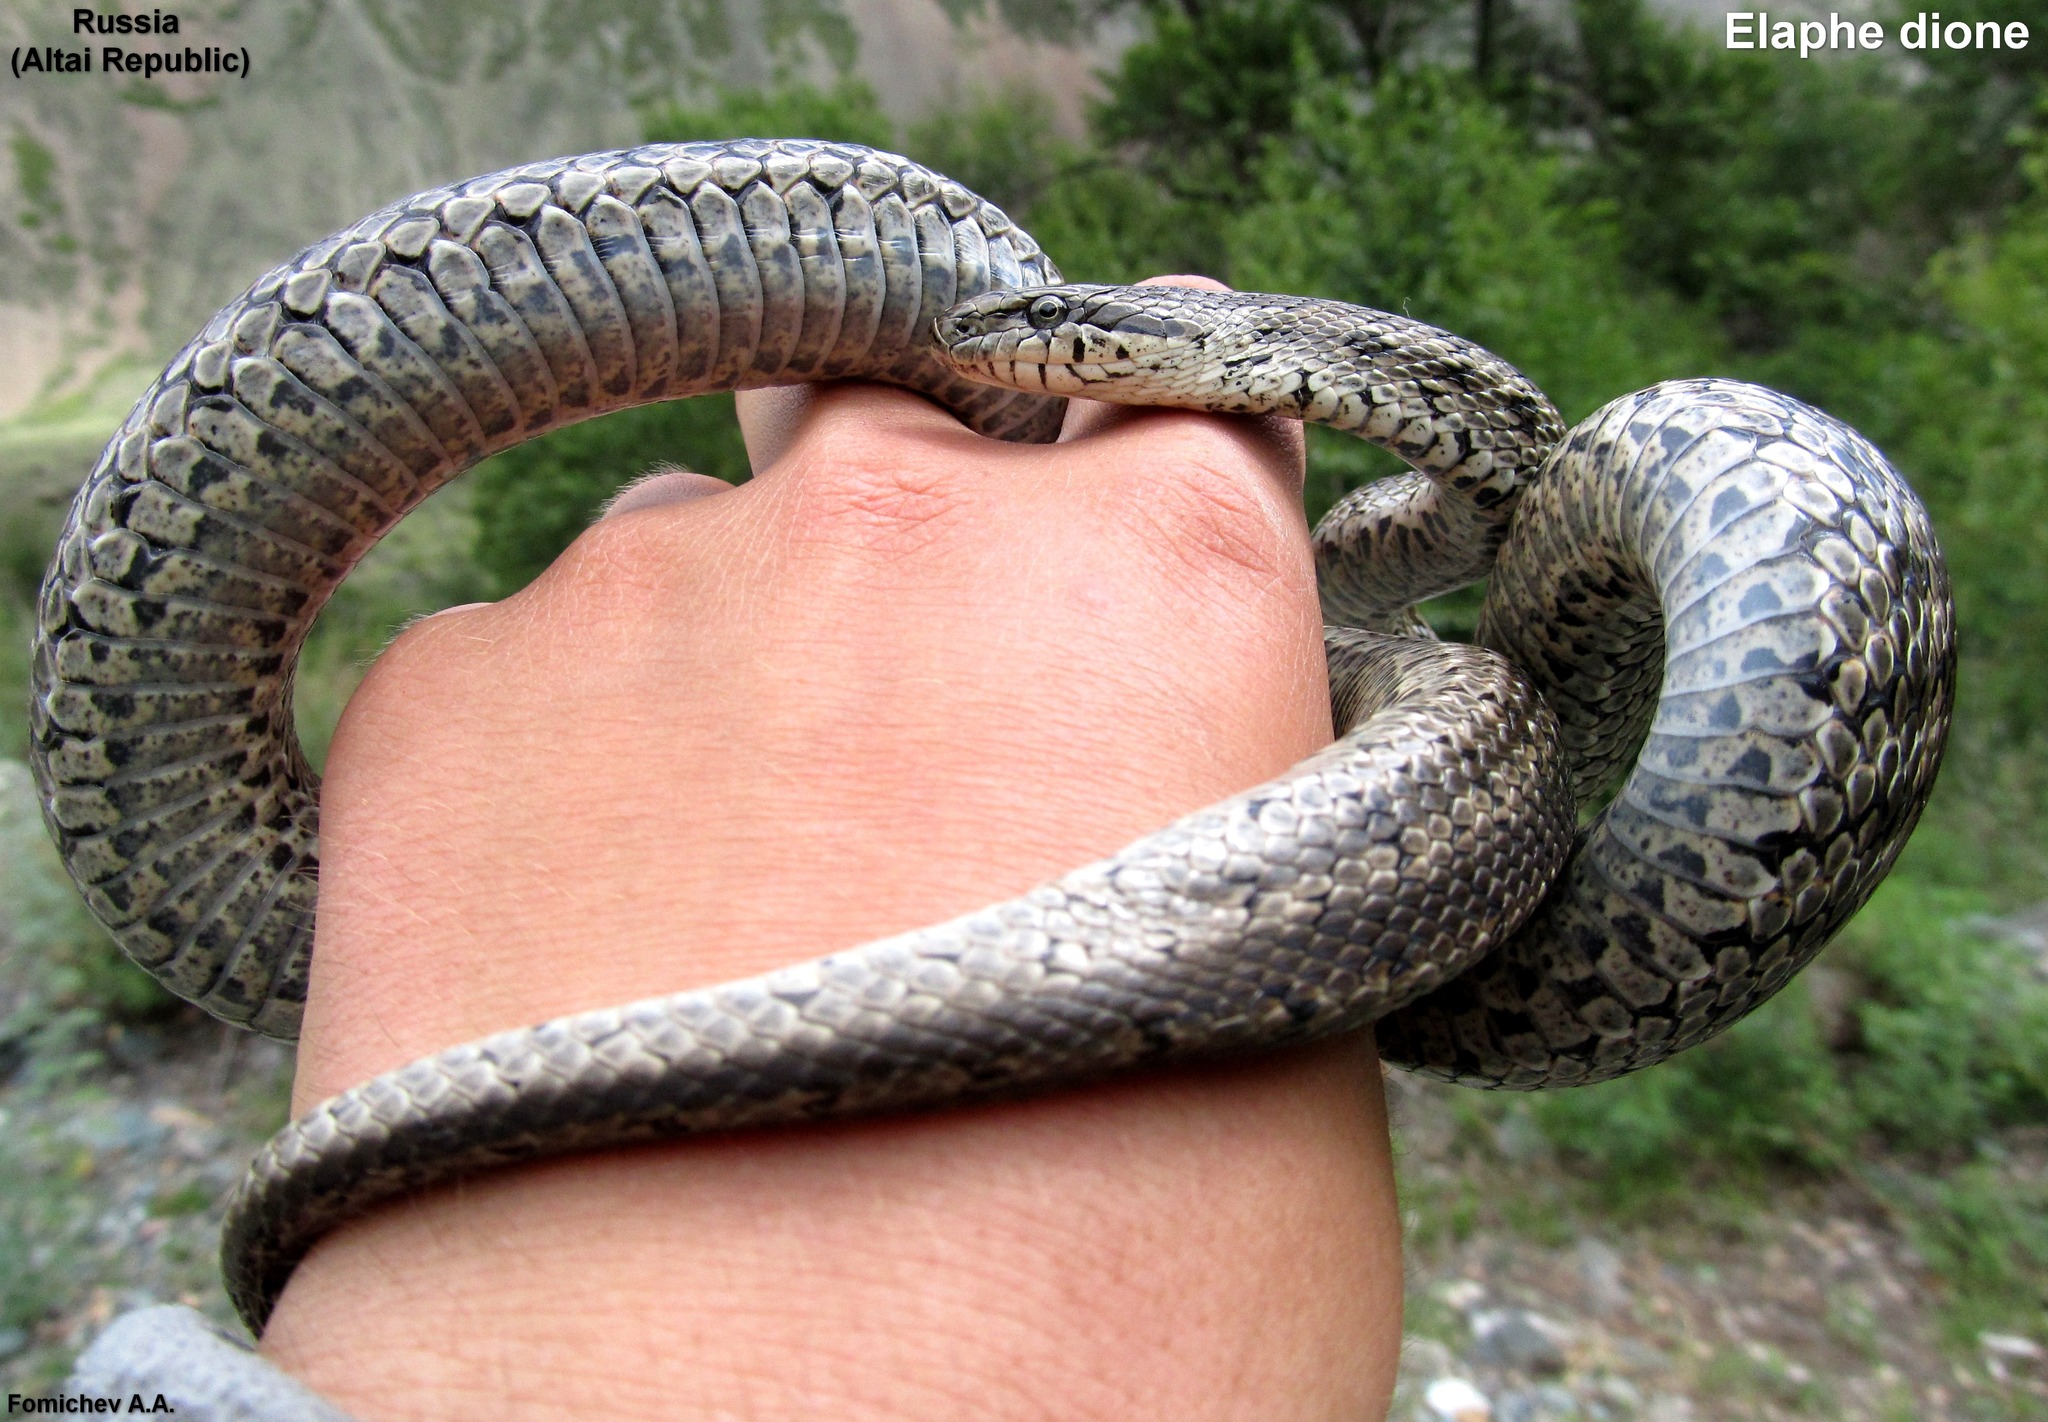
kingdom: Animalia
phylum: Chordata
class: Squamata
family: Colubridae
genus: Elaphe
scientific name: Elaphe dione
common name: Dione ratsnake
